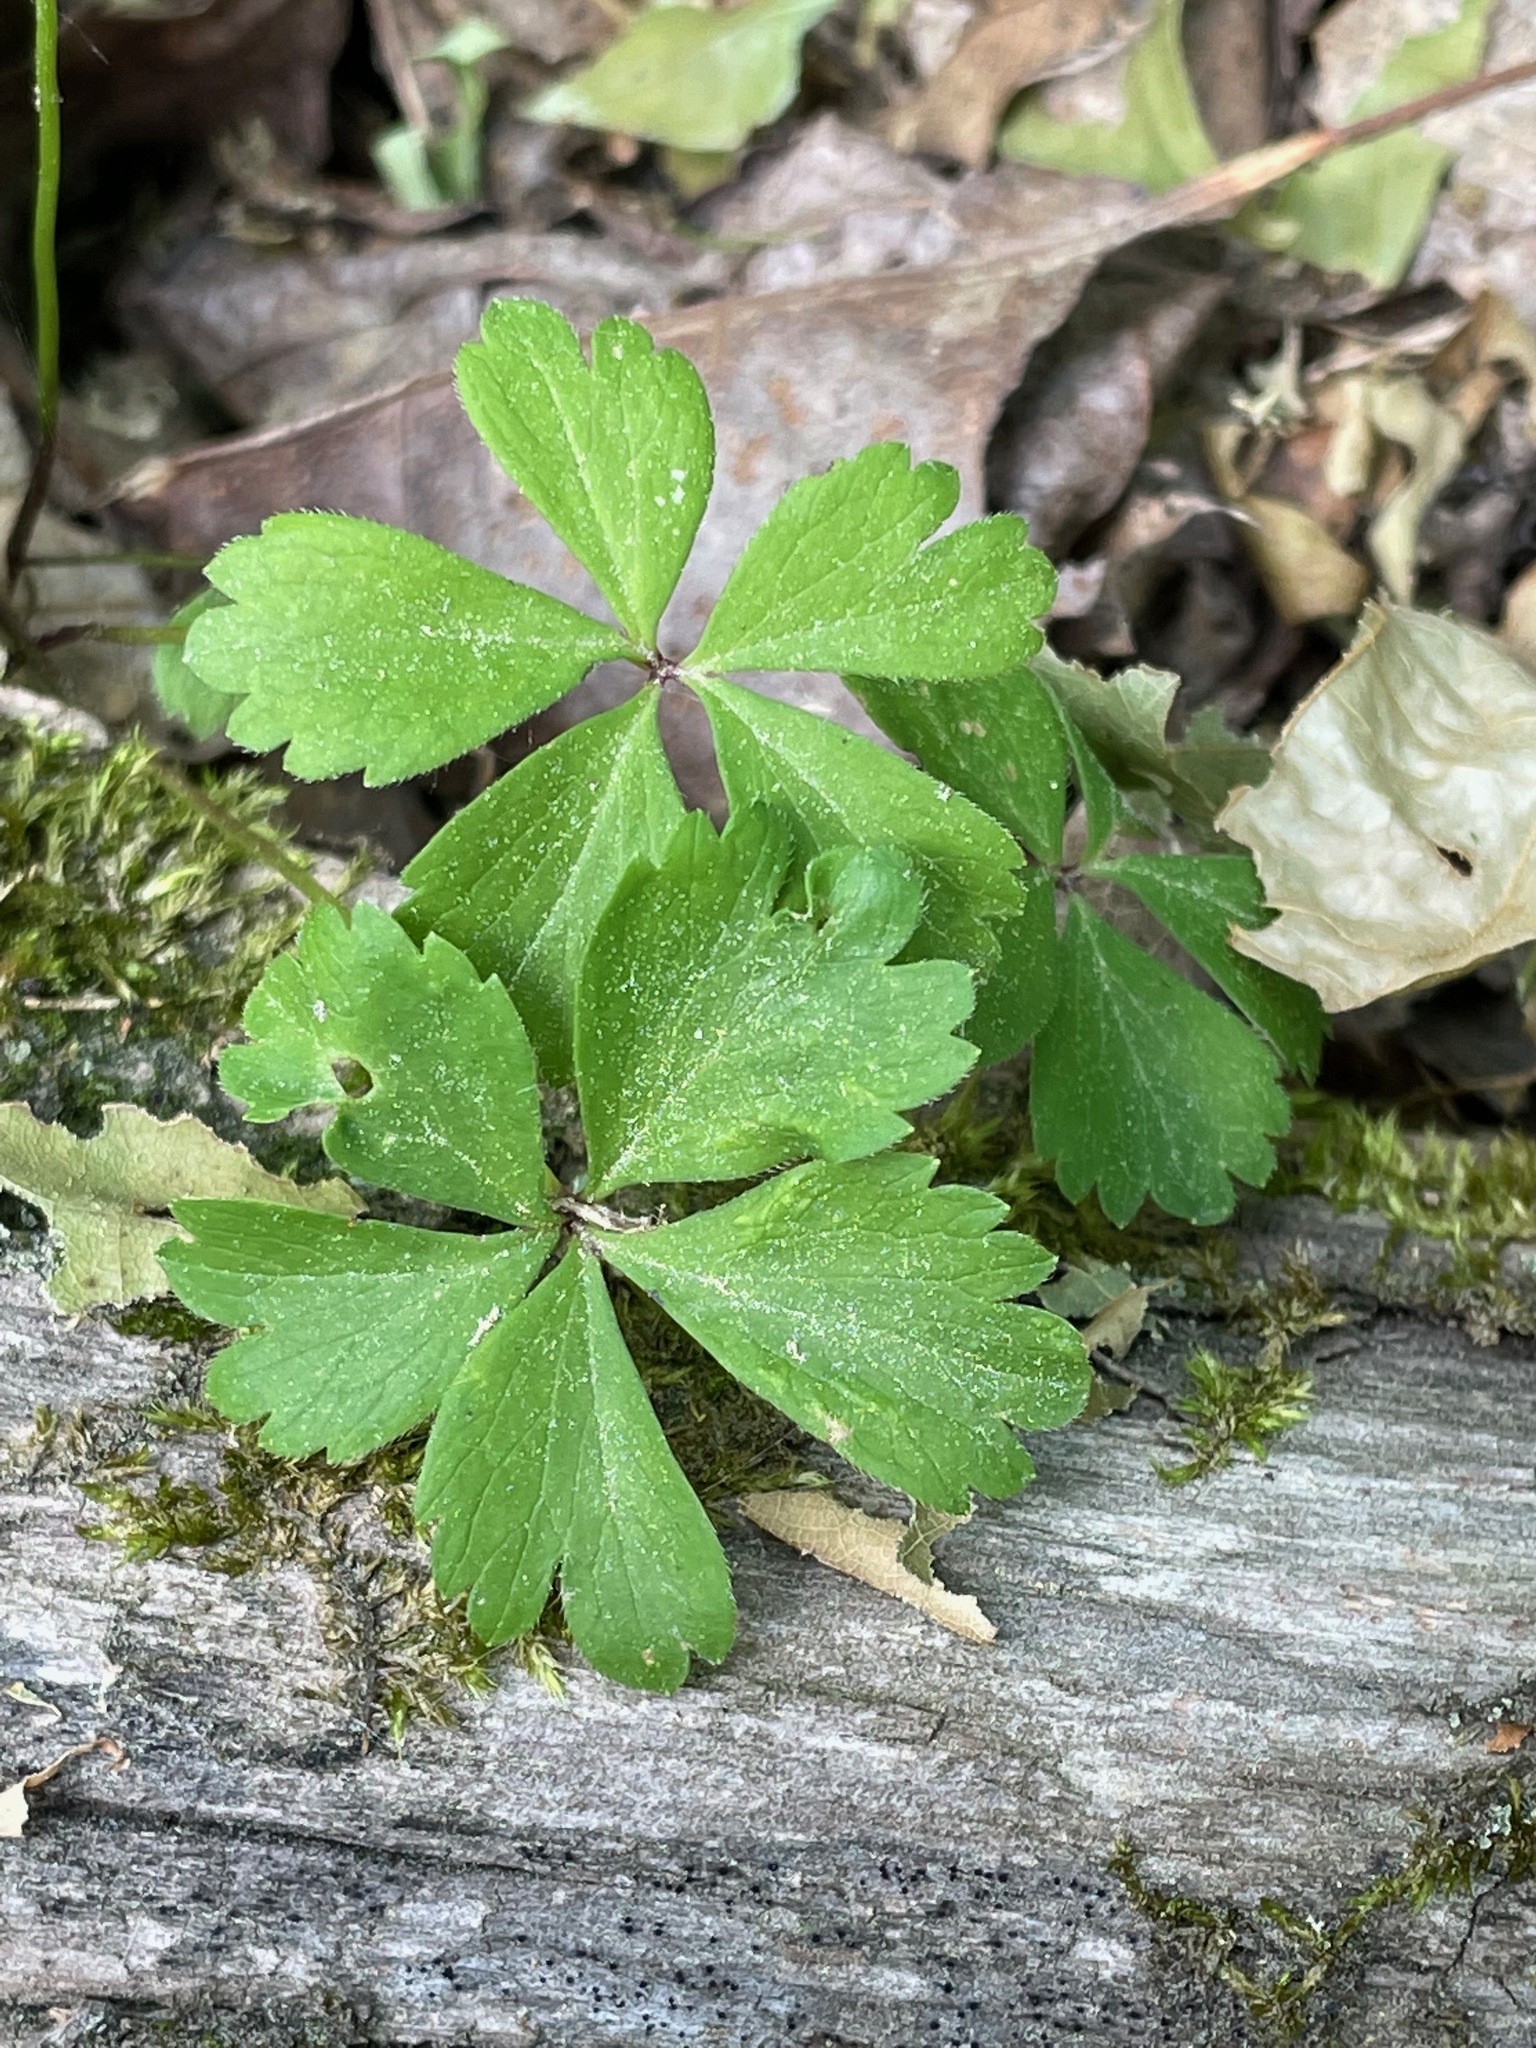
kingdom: Plantae
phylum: Tracheophyta
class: Magnoliopsida
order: Ranunculales
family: Ranunculaceae
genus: Anemone
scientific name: Anemone quinquefolia
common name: Wood anemone
